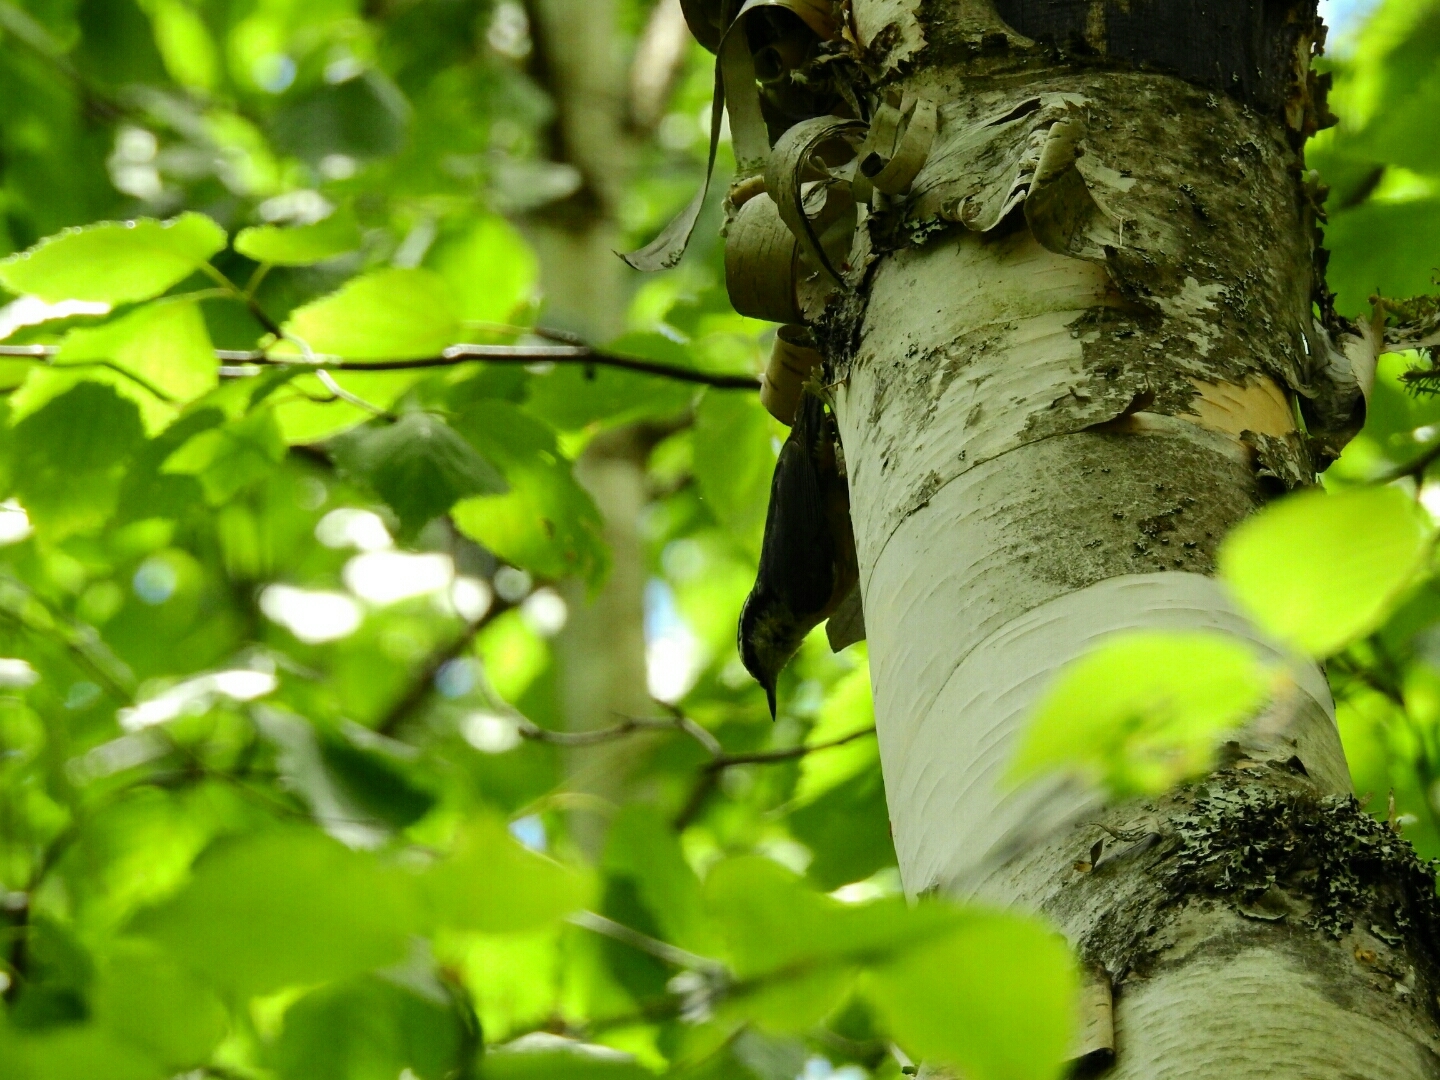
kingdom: Animalia
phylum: Chordata
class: Aves
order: Passeriformes
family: Sittidae
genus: Sitta
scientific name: Sitta canadensis
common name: Red-breasted nuthatch
